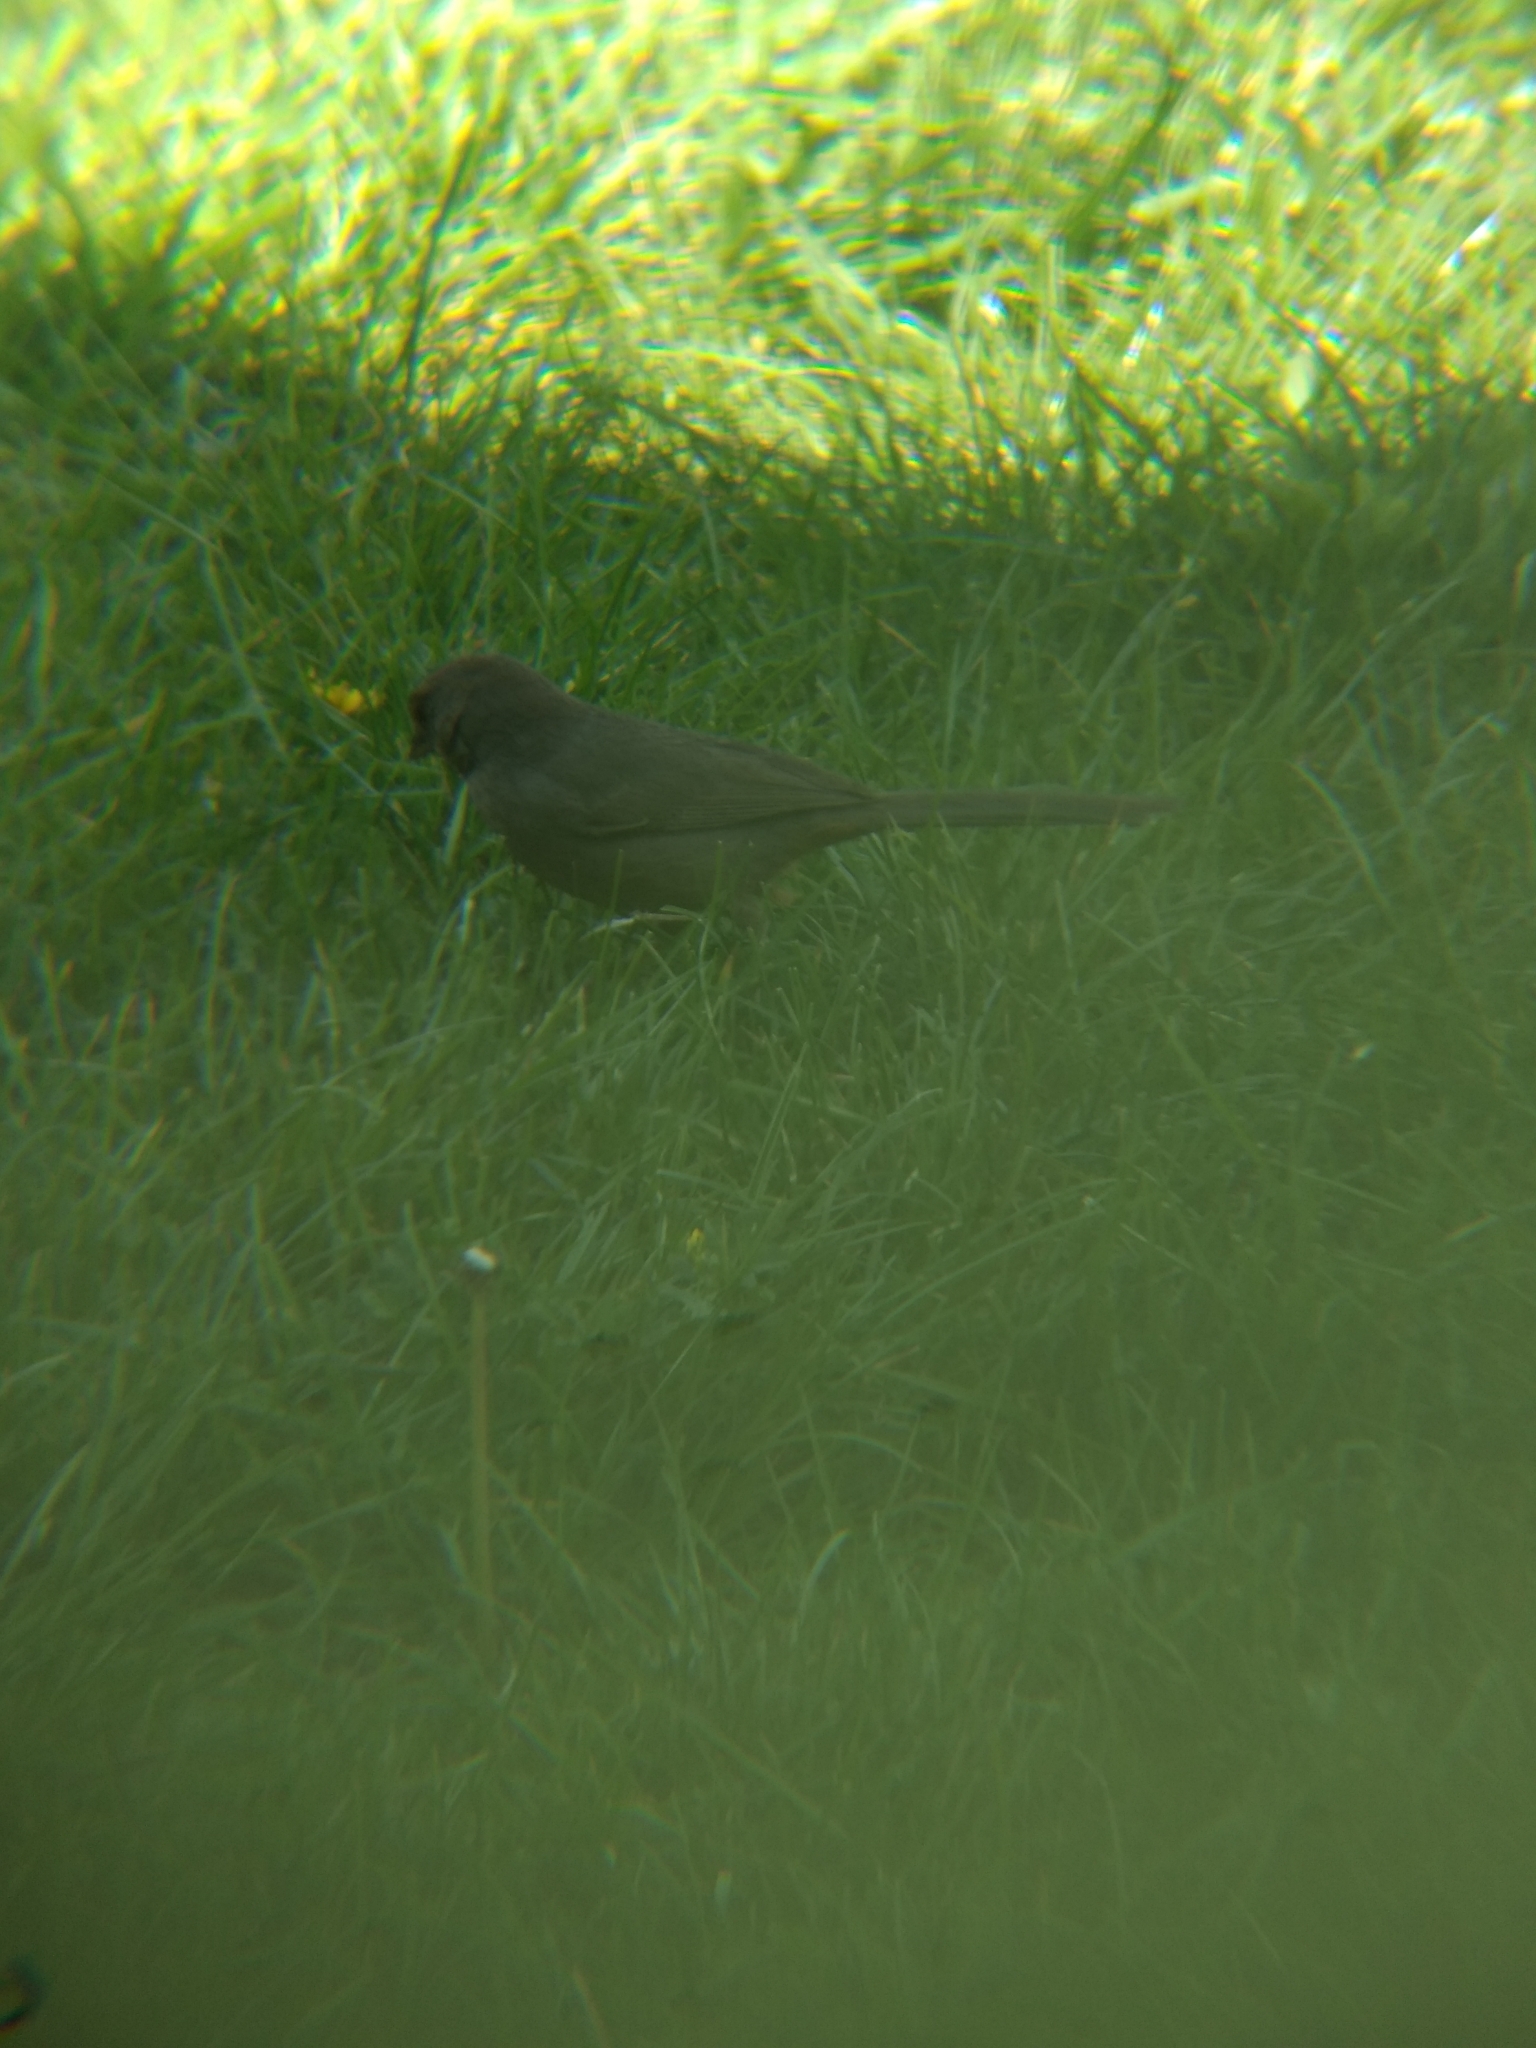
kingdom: Animalia
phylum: Chordata
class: Aves
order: Passeriformes
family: Passerellidae
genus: Melozone
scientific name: Melozone crissalis
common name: California towhee
